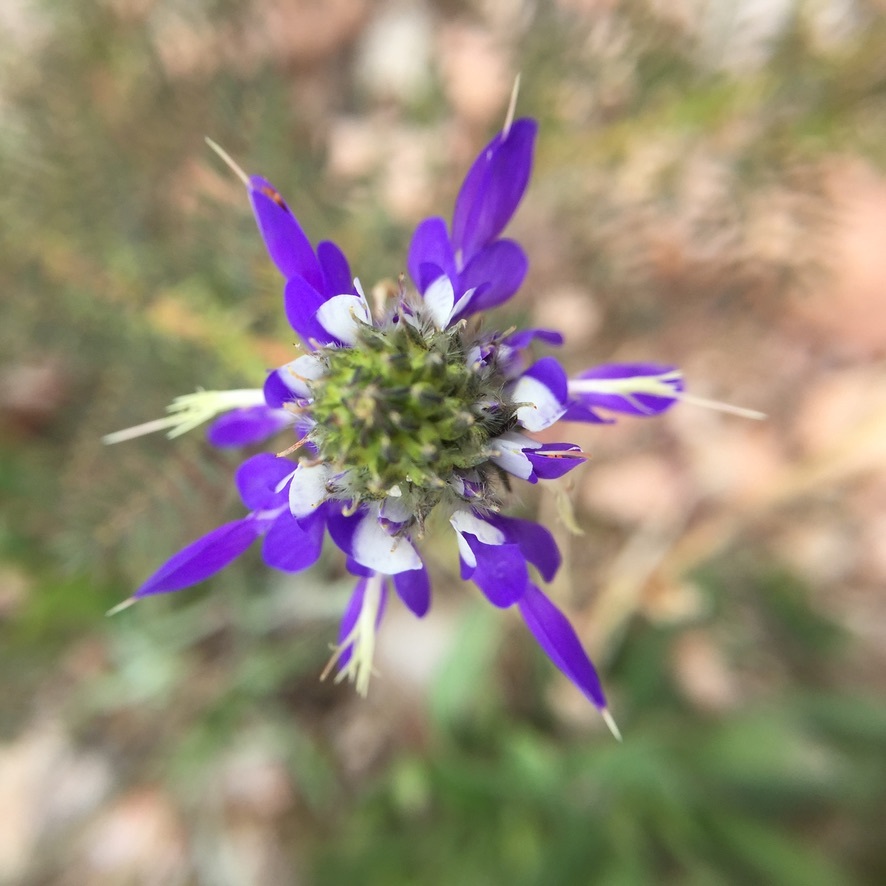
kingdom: Plantae
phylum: Tracheophyta
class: Magnoliopsida
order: Fabales
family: Fabaceae
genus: Dalea
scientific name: Dalea elegans
